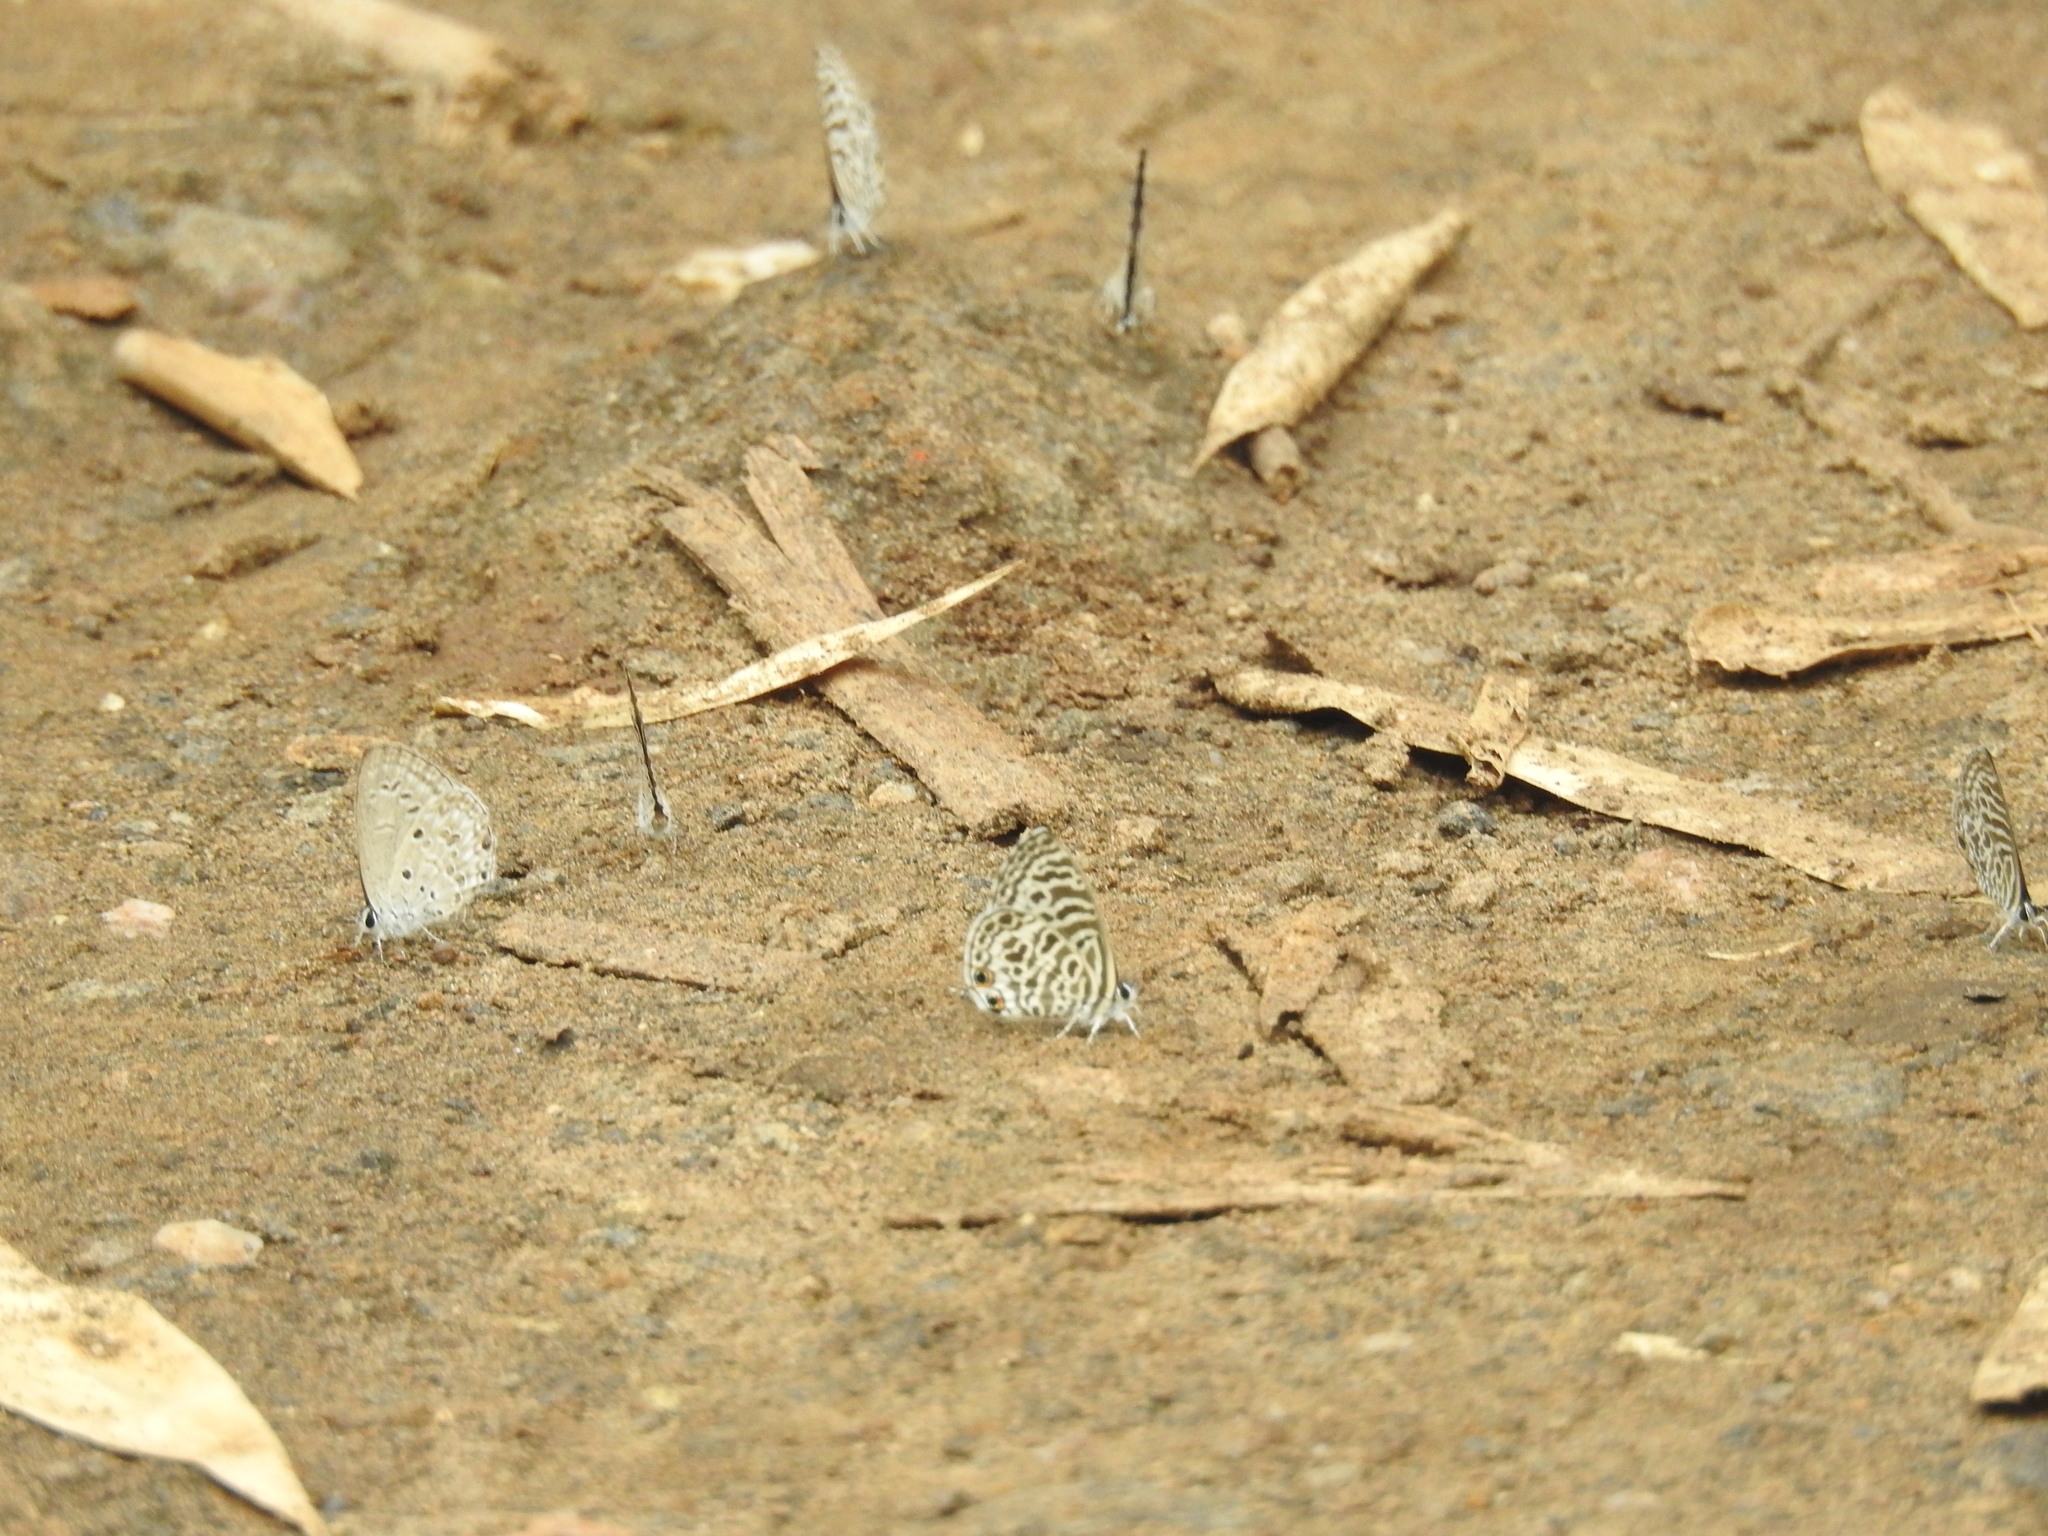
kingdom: Animalia
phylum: Arthropoda
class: Insecta
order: Lepidoptera
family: Lycaenidae
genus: Leptotes
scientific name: Leptotes plinius
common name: Zebra blue
